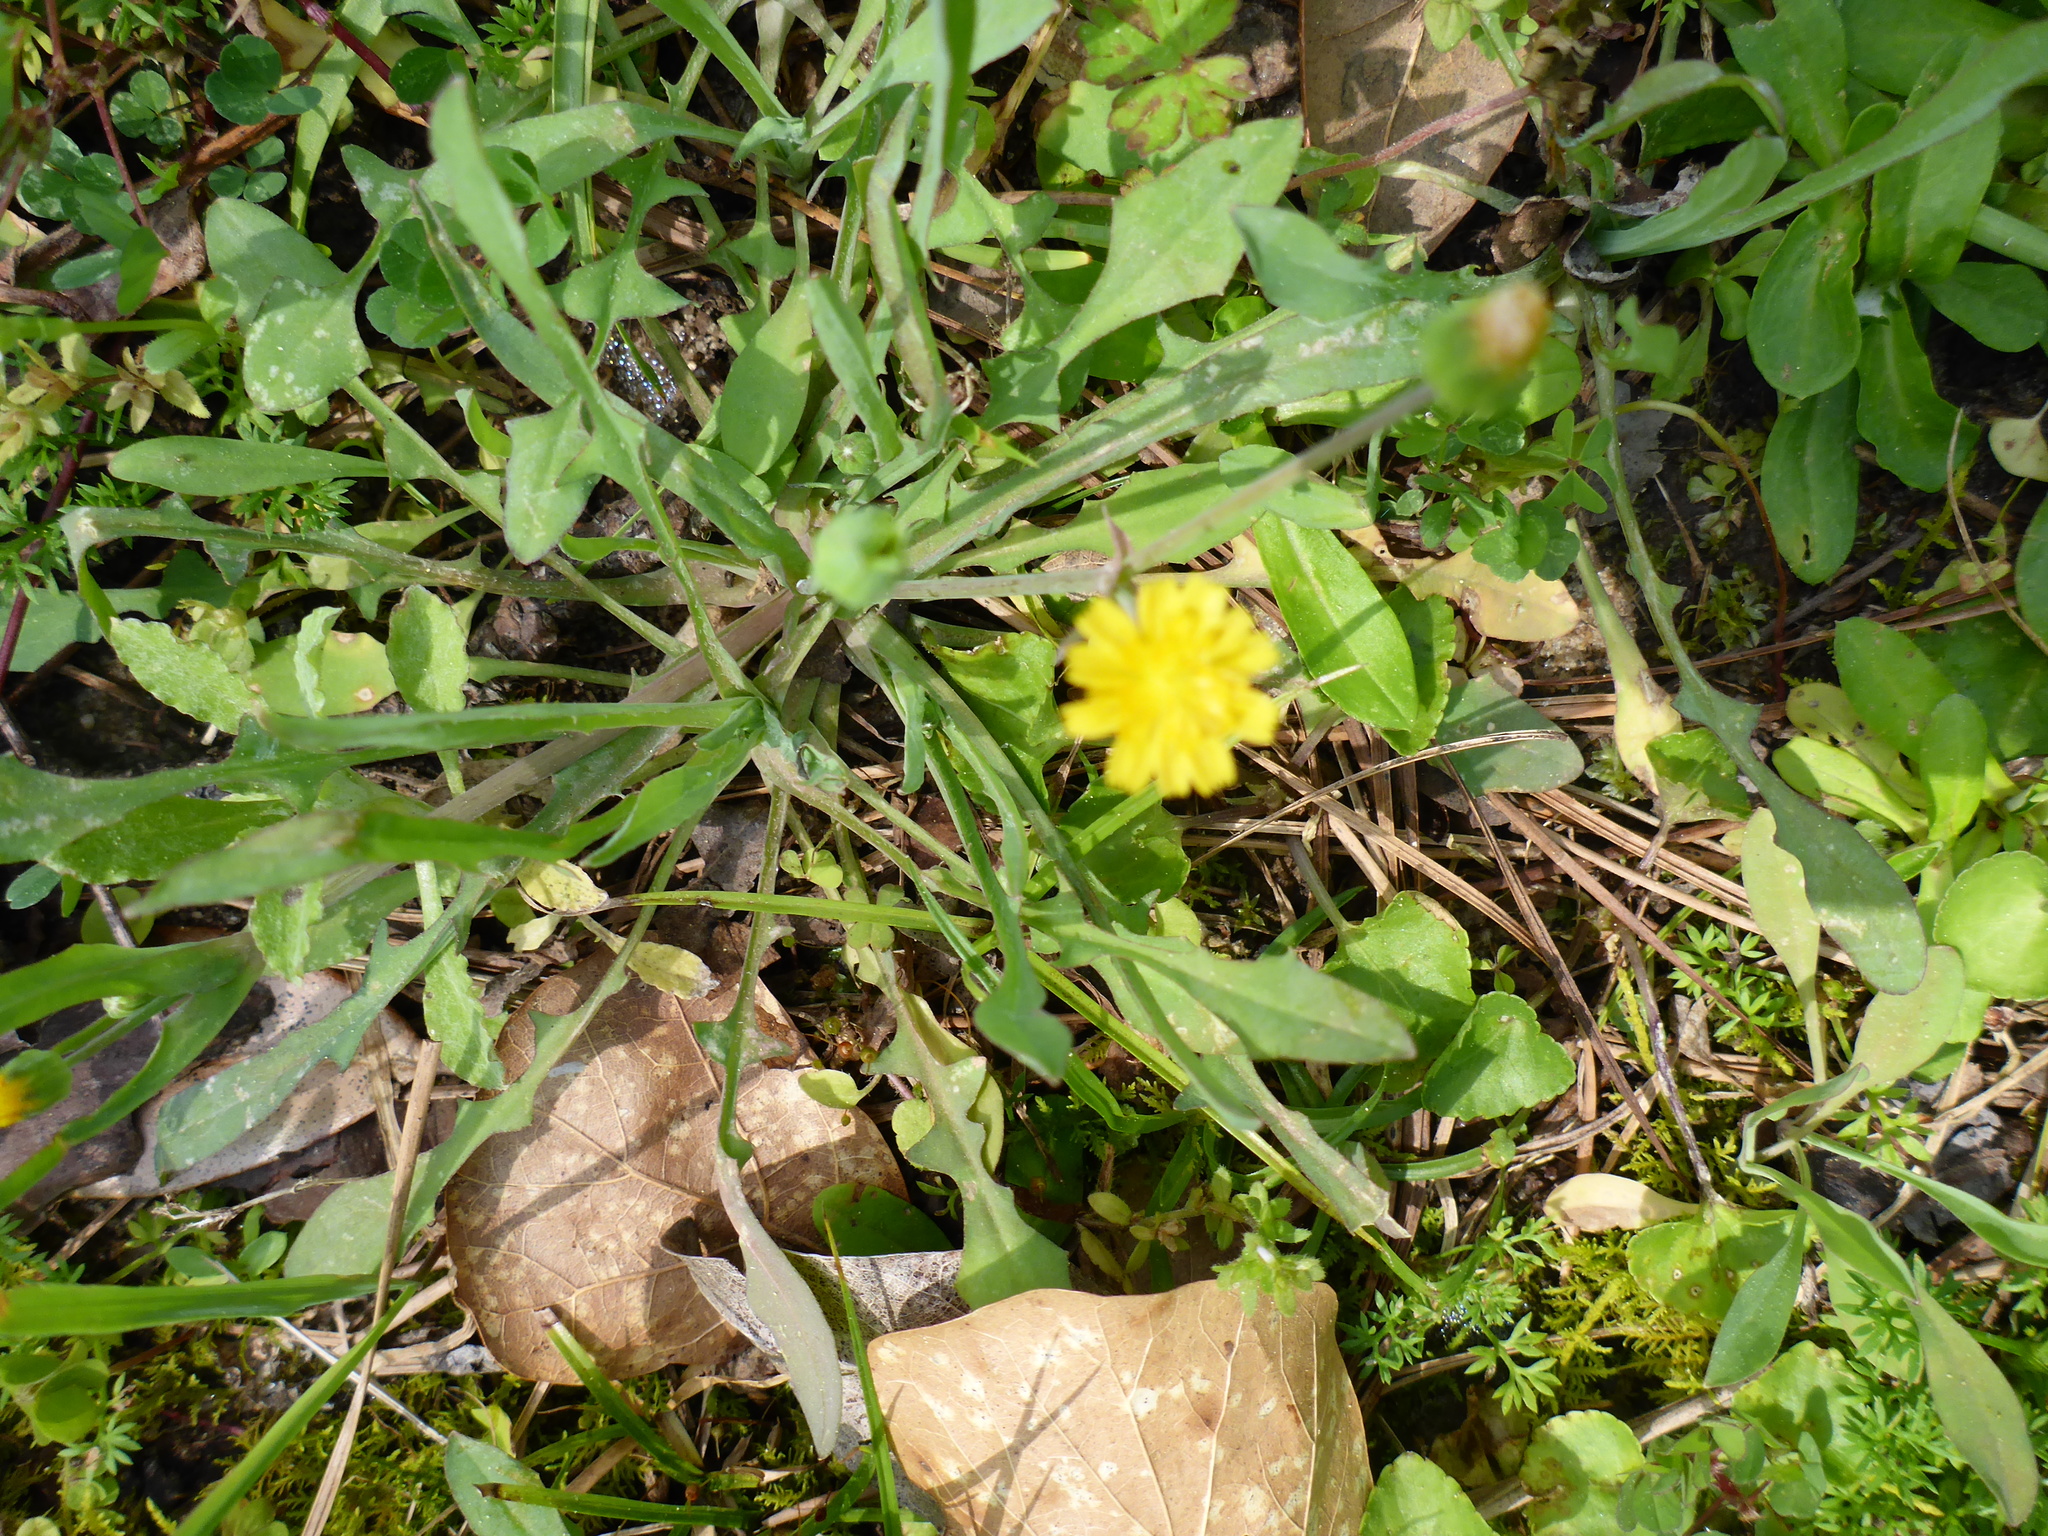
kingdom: Plantae
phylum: Tracheophyta
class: Magnoliopsida
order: Asterales
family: Asteraceae
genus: Krigia
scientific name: Krigia cespitosa
